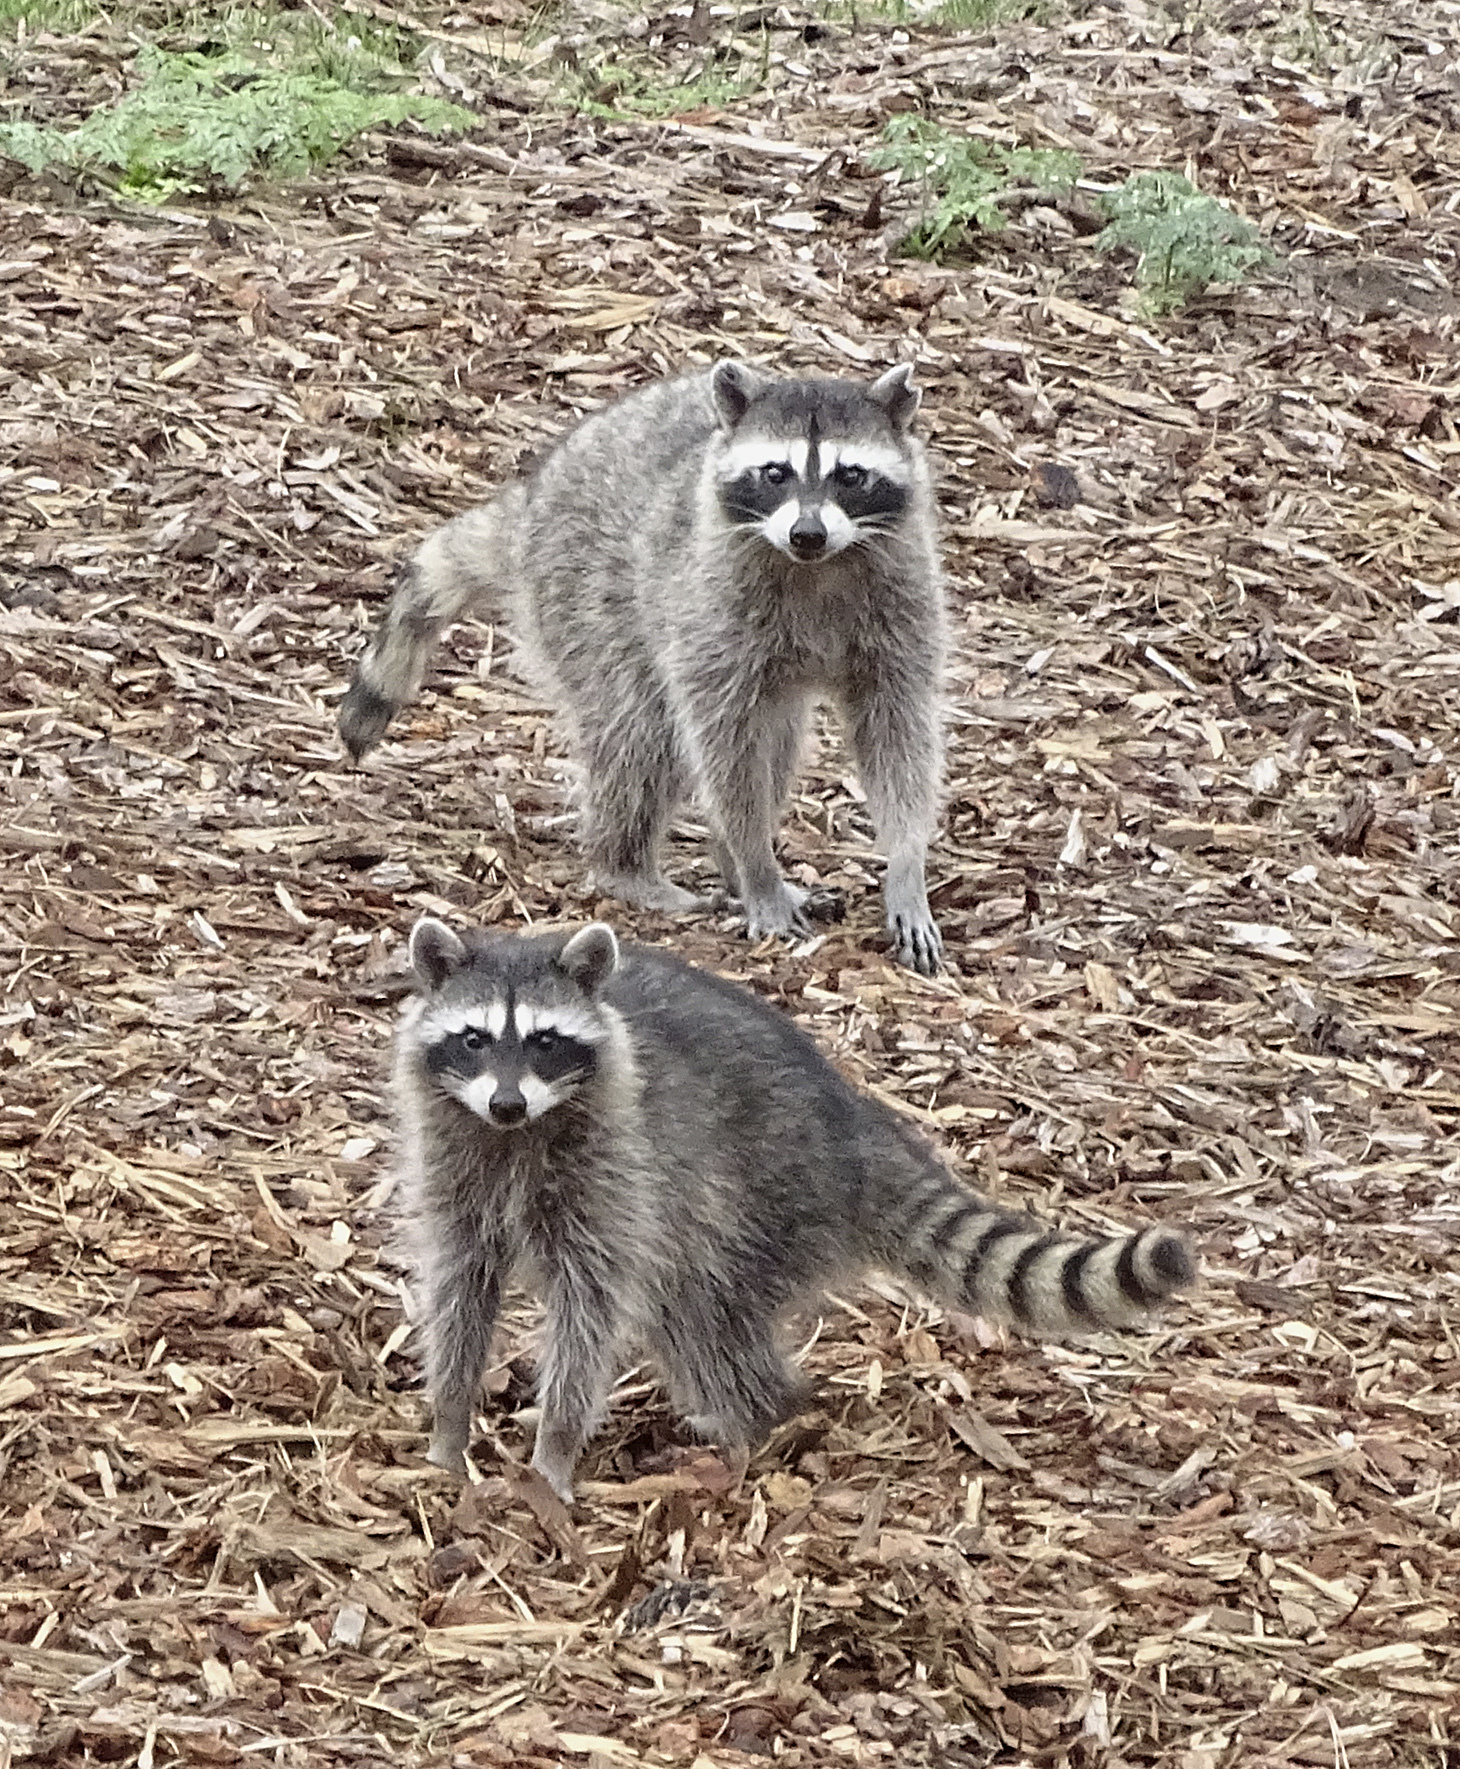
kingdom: Animalia
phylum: Chordata
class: Mammalia
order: Carnivora
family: Procyonidae
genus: Procyon
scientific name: Procyon lotor
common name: Raccoon
